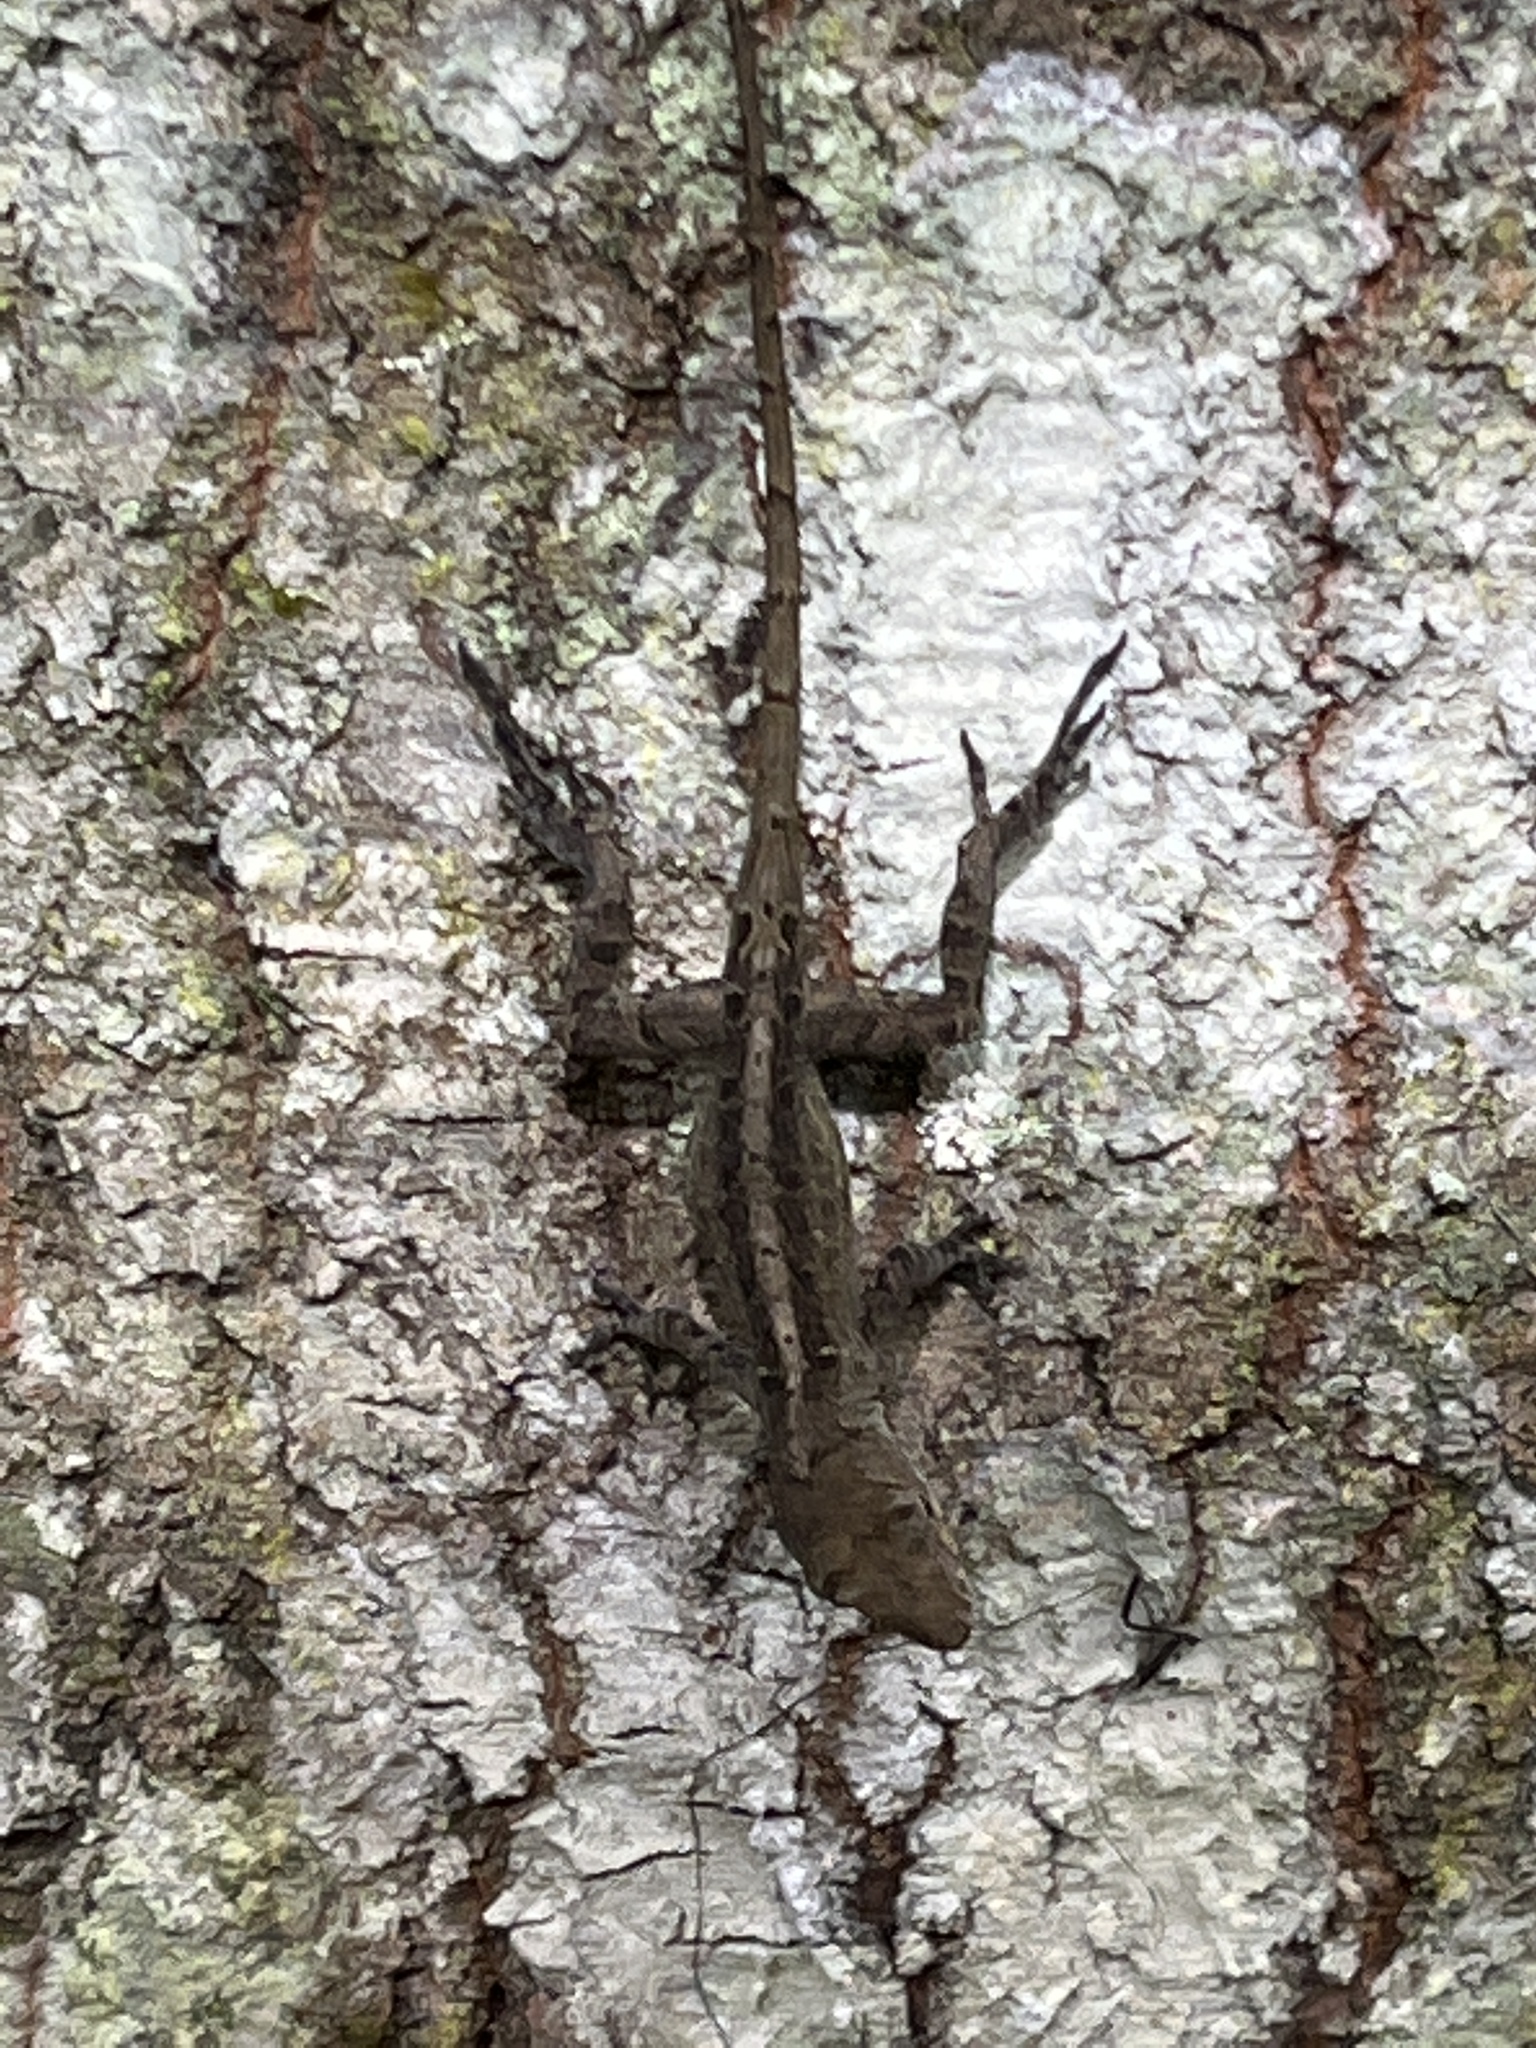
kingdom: Animalia
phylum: Chordata
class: Squamata
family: Dactyloidae
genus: Anolis
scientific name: Anolis sagrei
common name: Brown anole
